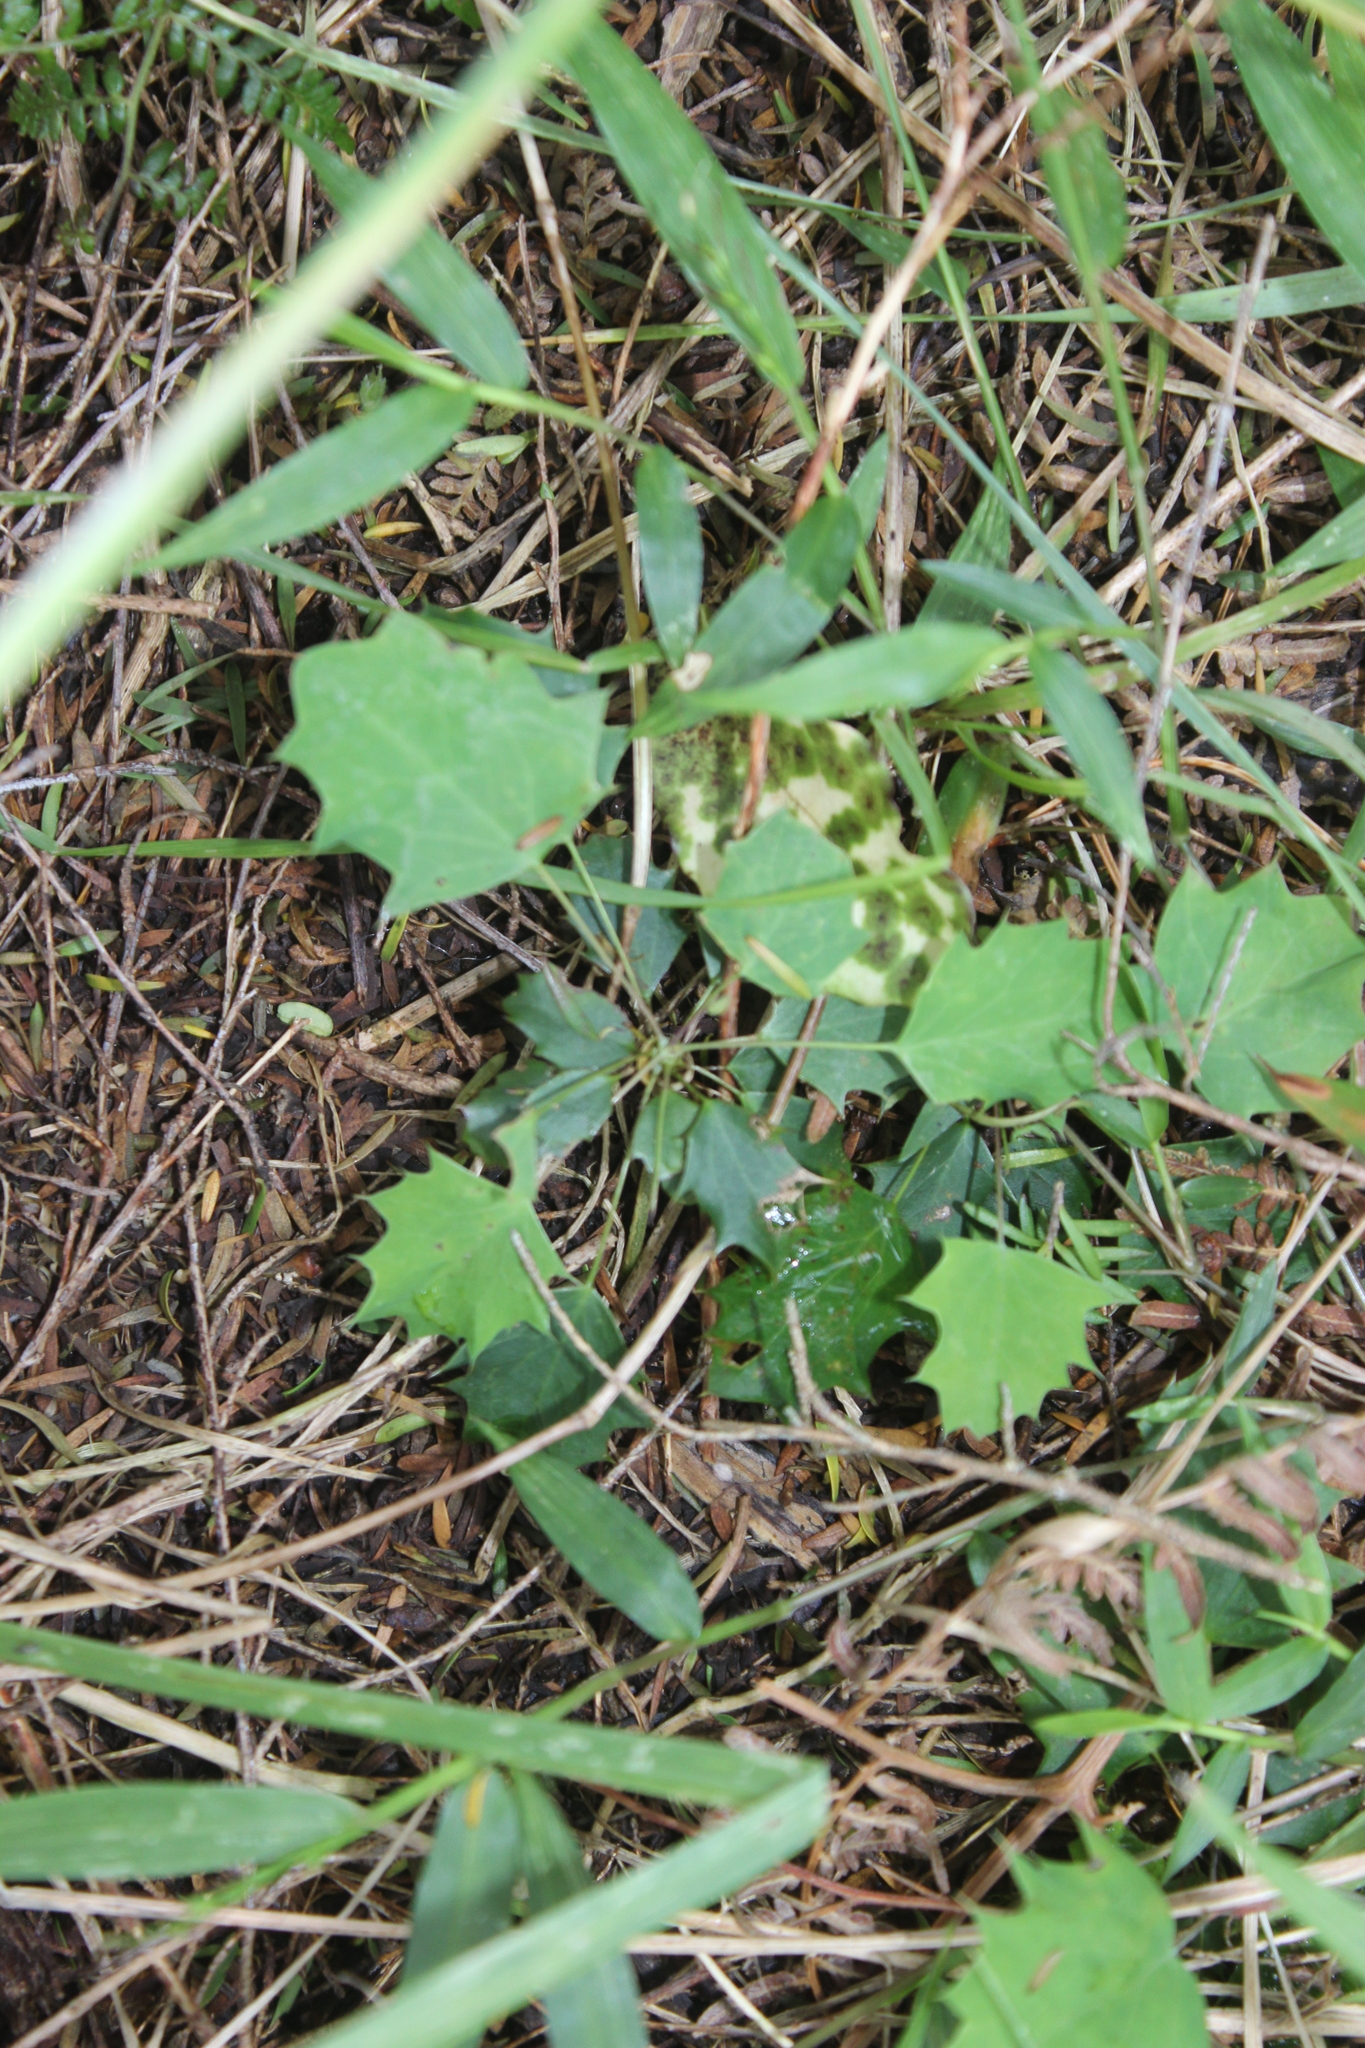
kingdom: Plantae
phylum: Tracheophyta
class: Magnoliopsida
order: Ranunculales
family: Berberidaceae
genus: Berberis
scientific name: Berberis glaucocarpa
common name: Great barberry
